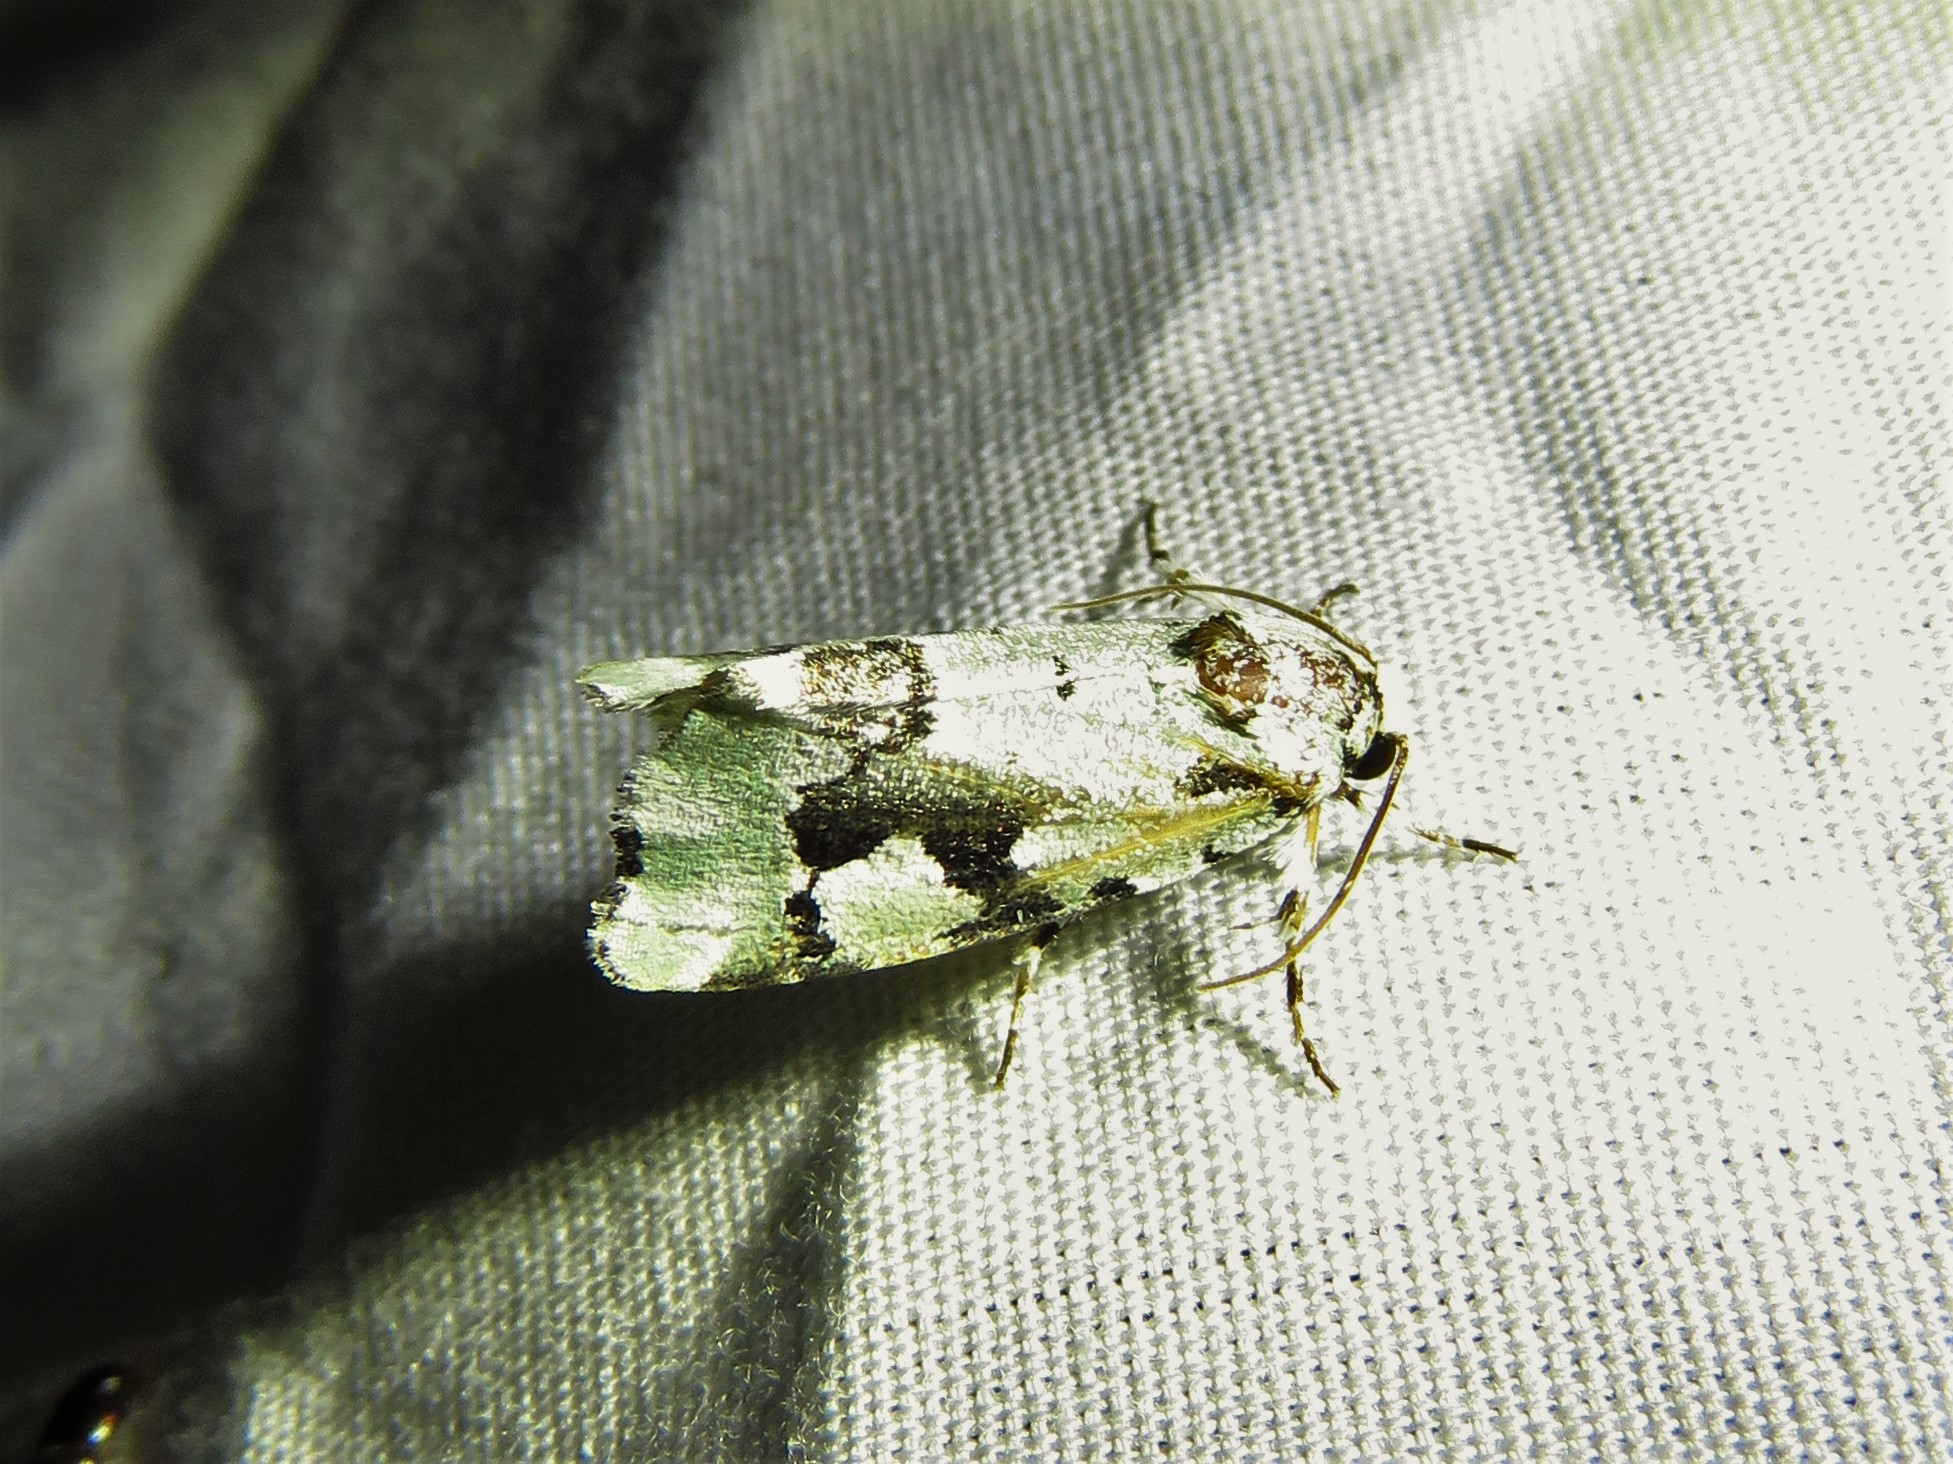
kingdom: Animalia
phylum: Arthropoda
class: Insecta
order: Lepidoptera
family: Noctuidae
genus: Emarginea
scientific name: Emarginea percara
